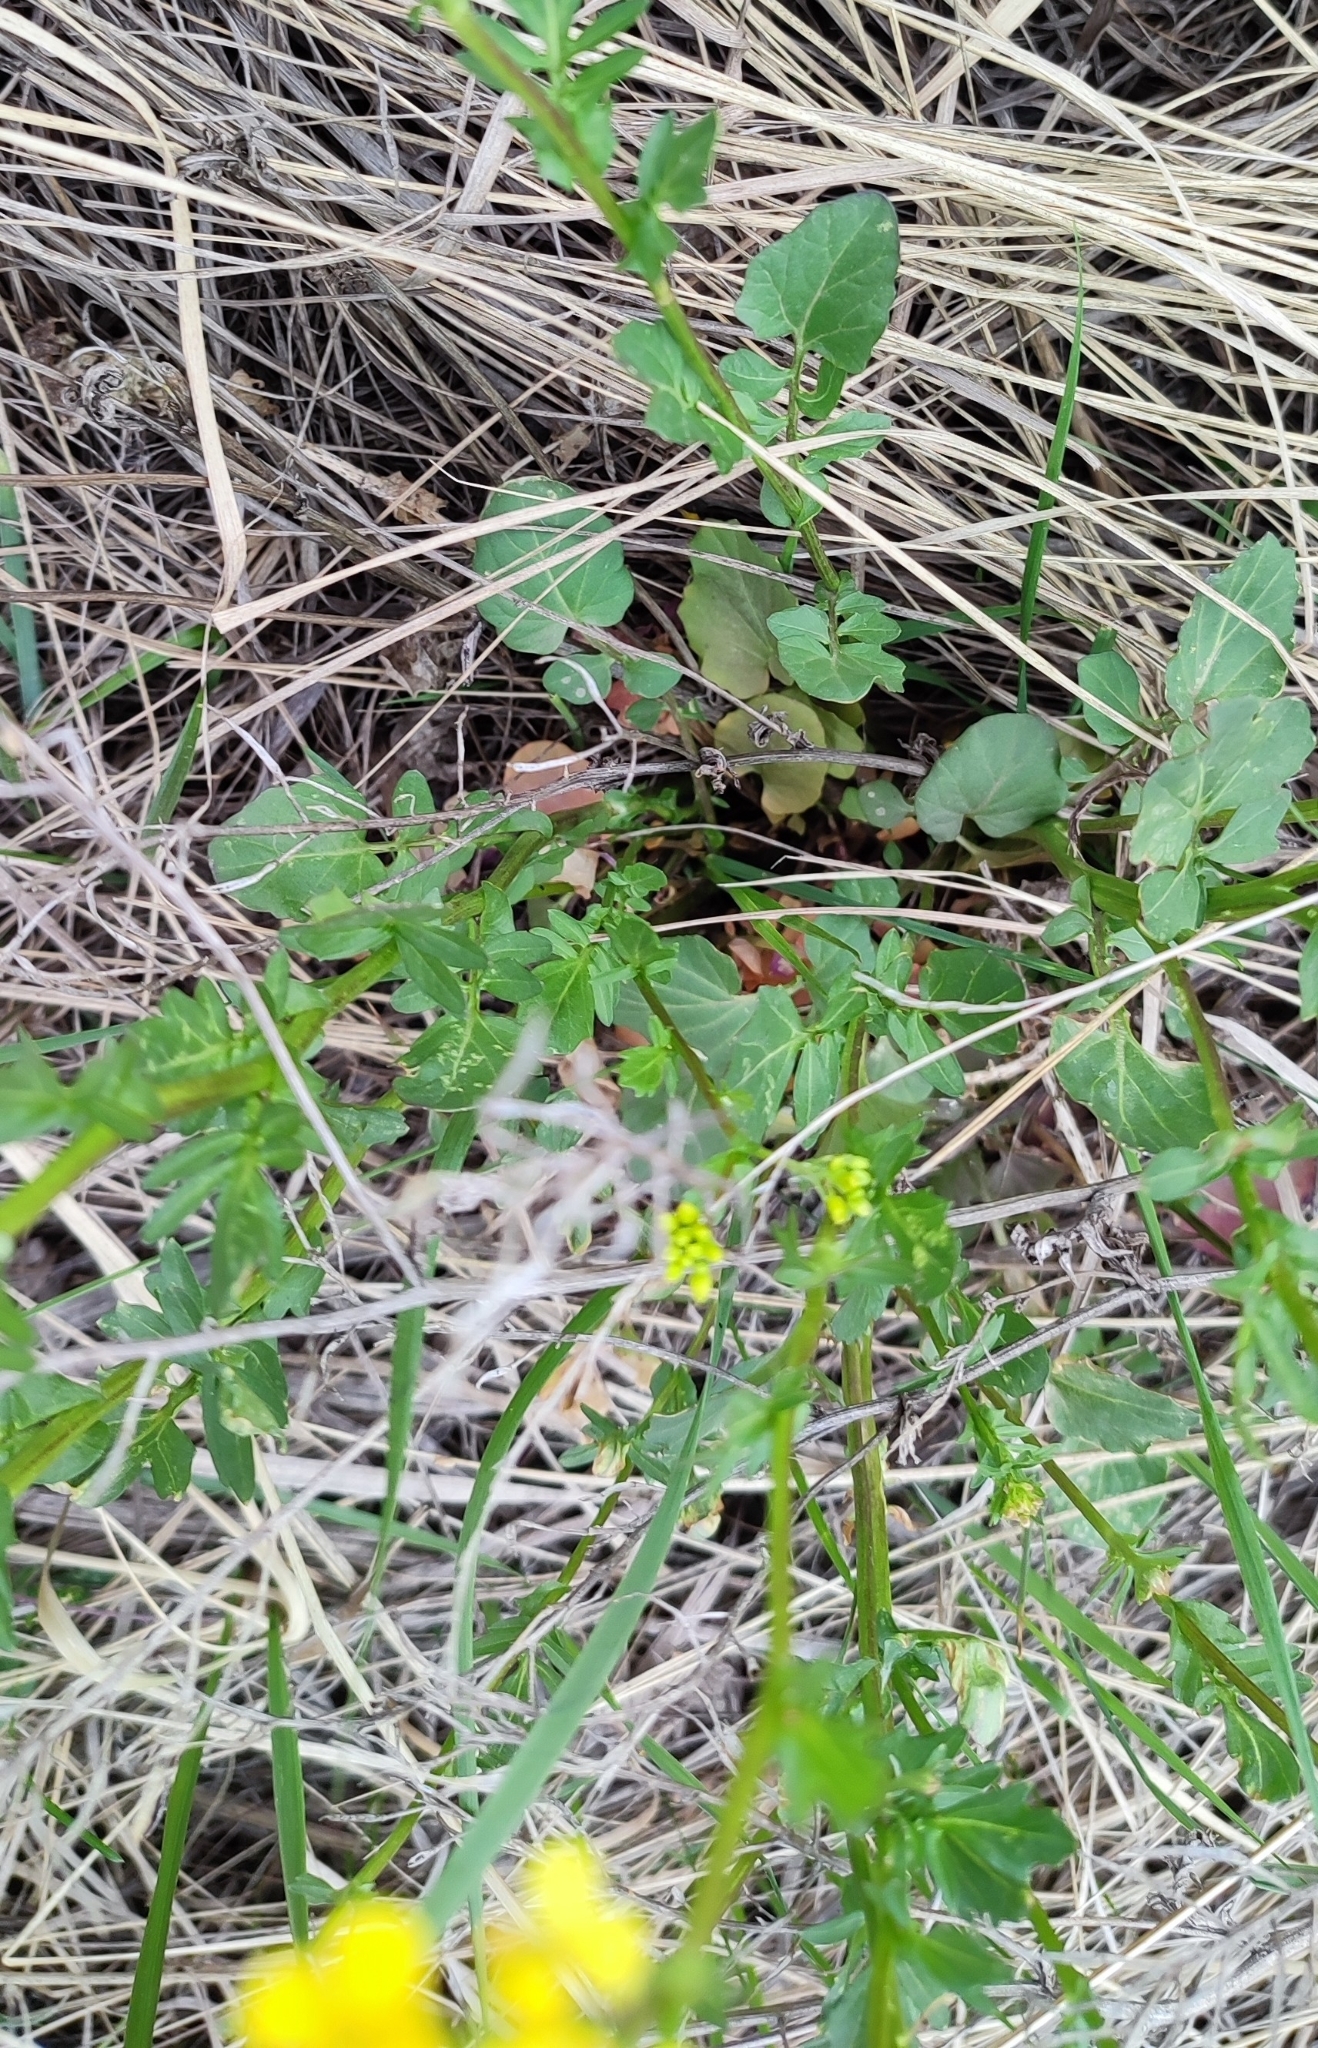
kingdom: Plantae
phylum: Tracheophyta
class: Magnoliopsida
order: Brassicales
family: Brassicaceae
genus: Barbarea
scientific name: Barbarea vulgaris
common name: Cressy-greens
